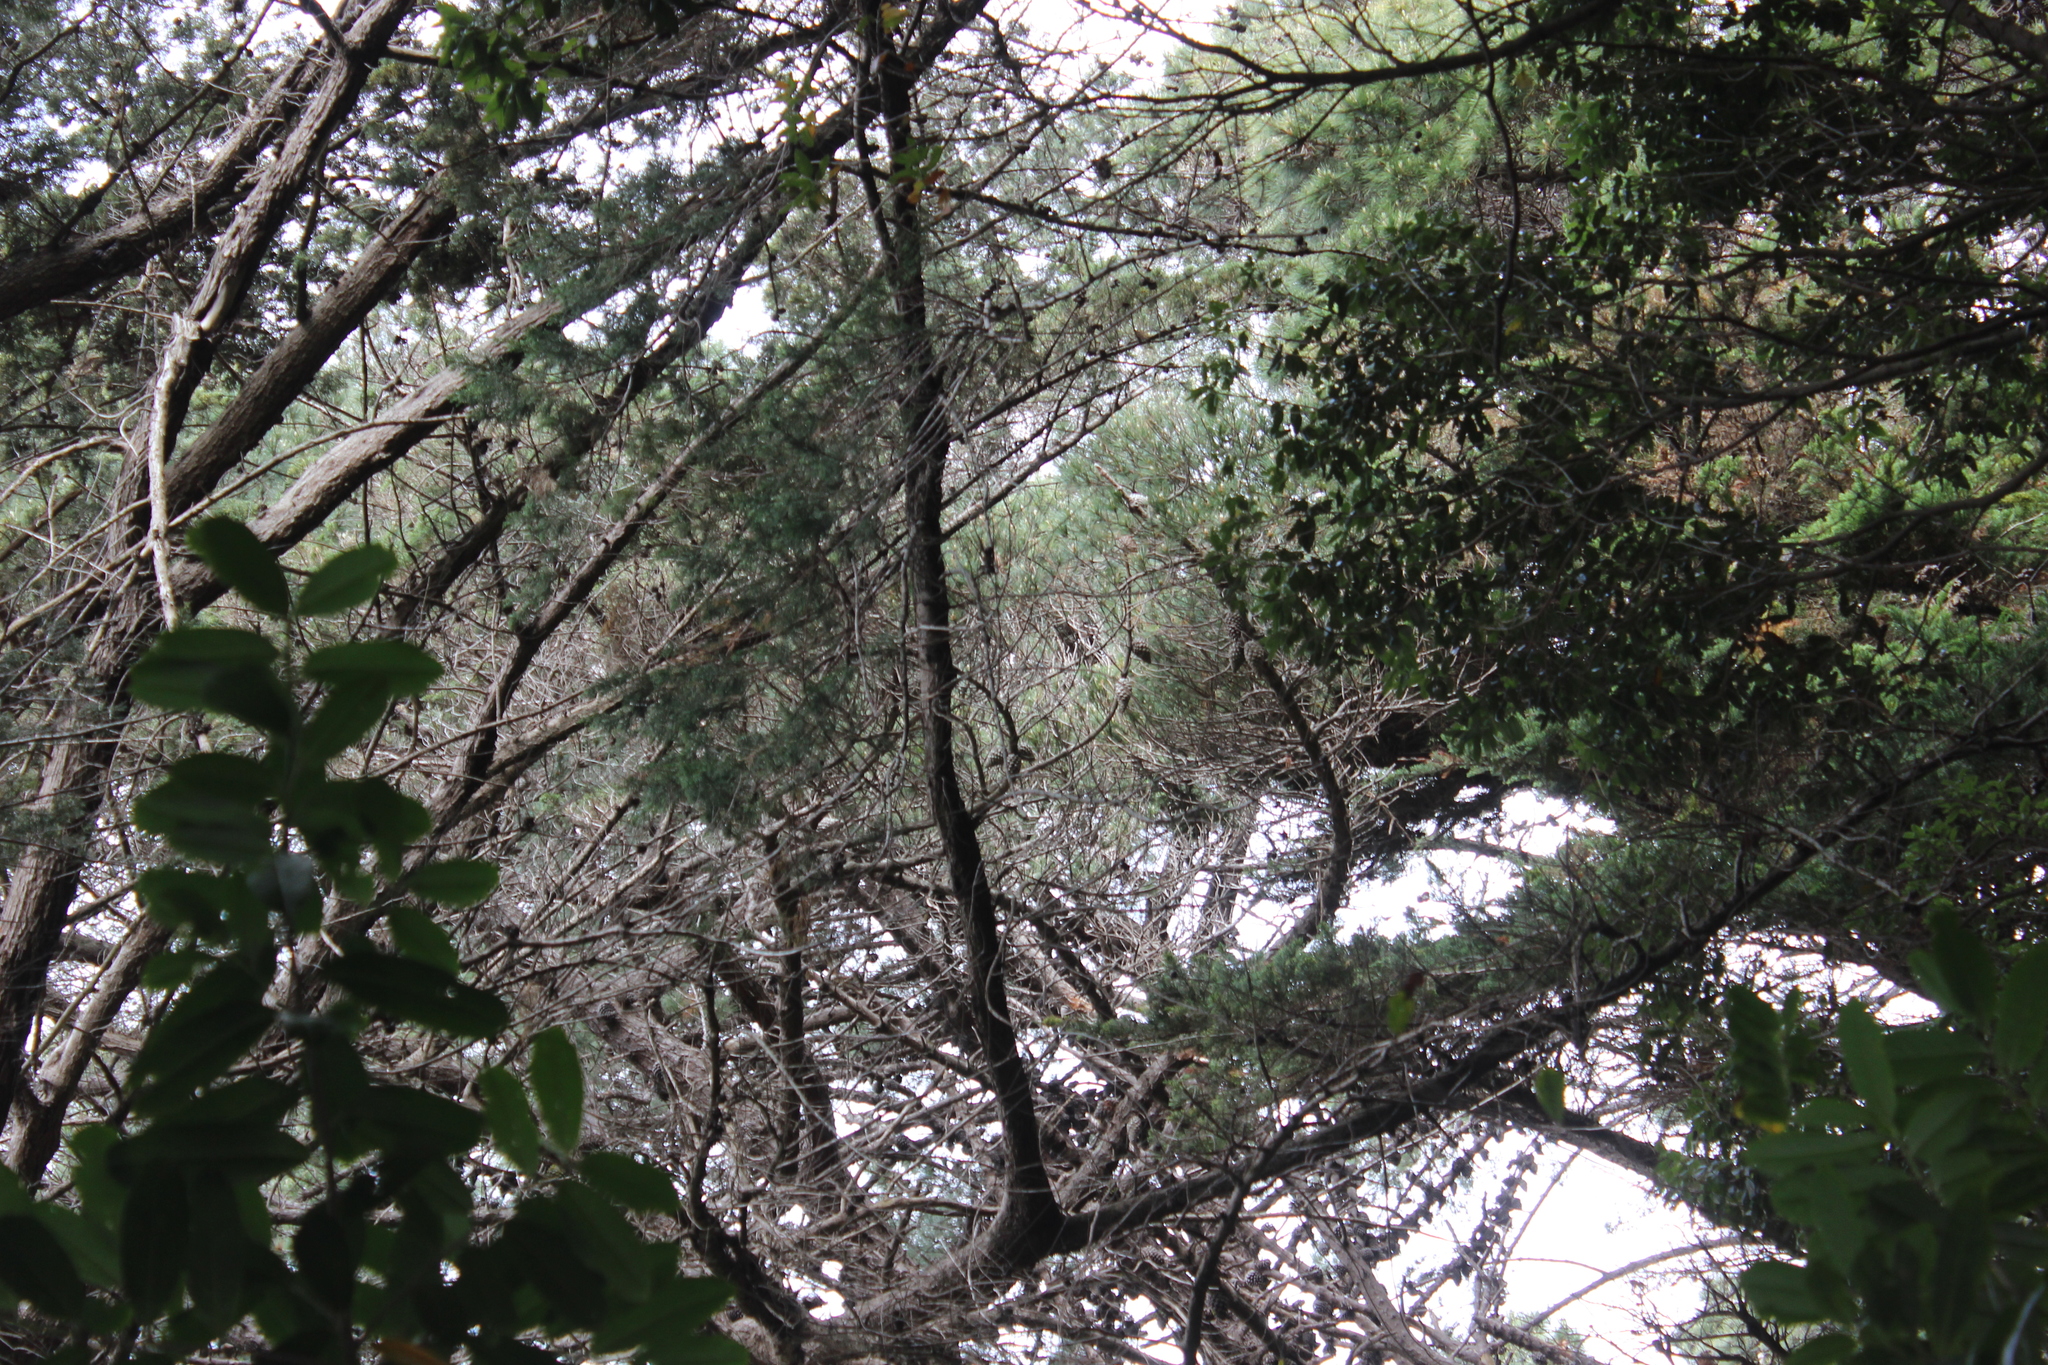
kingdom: Plantae
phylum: Tracheophyta
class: Pinopsida
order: Pinales
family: Pinaceae
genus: Pinus
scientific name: Pinus radiata
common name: Monterey pine
